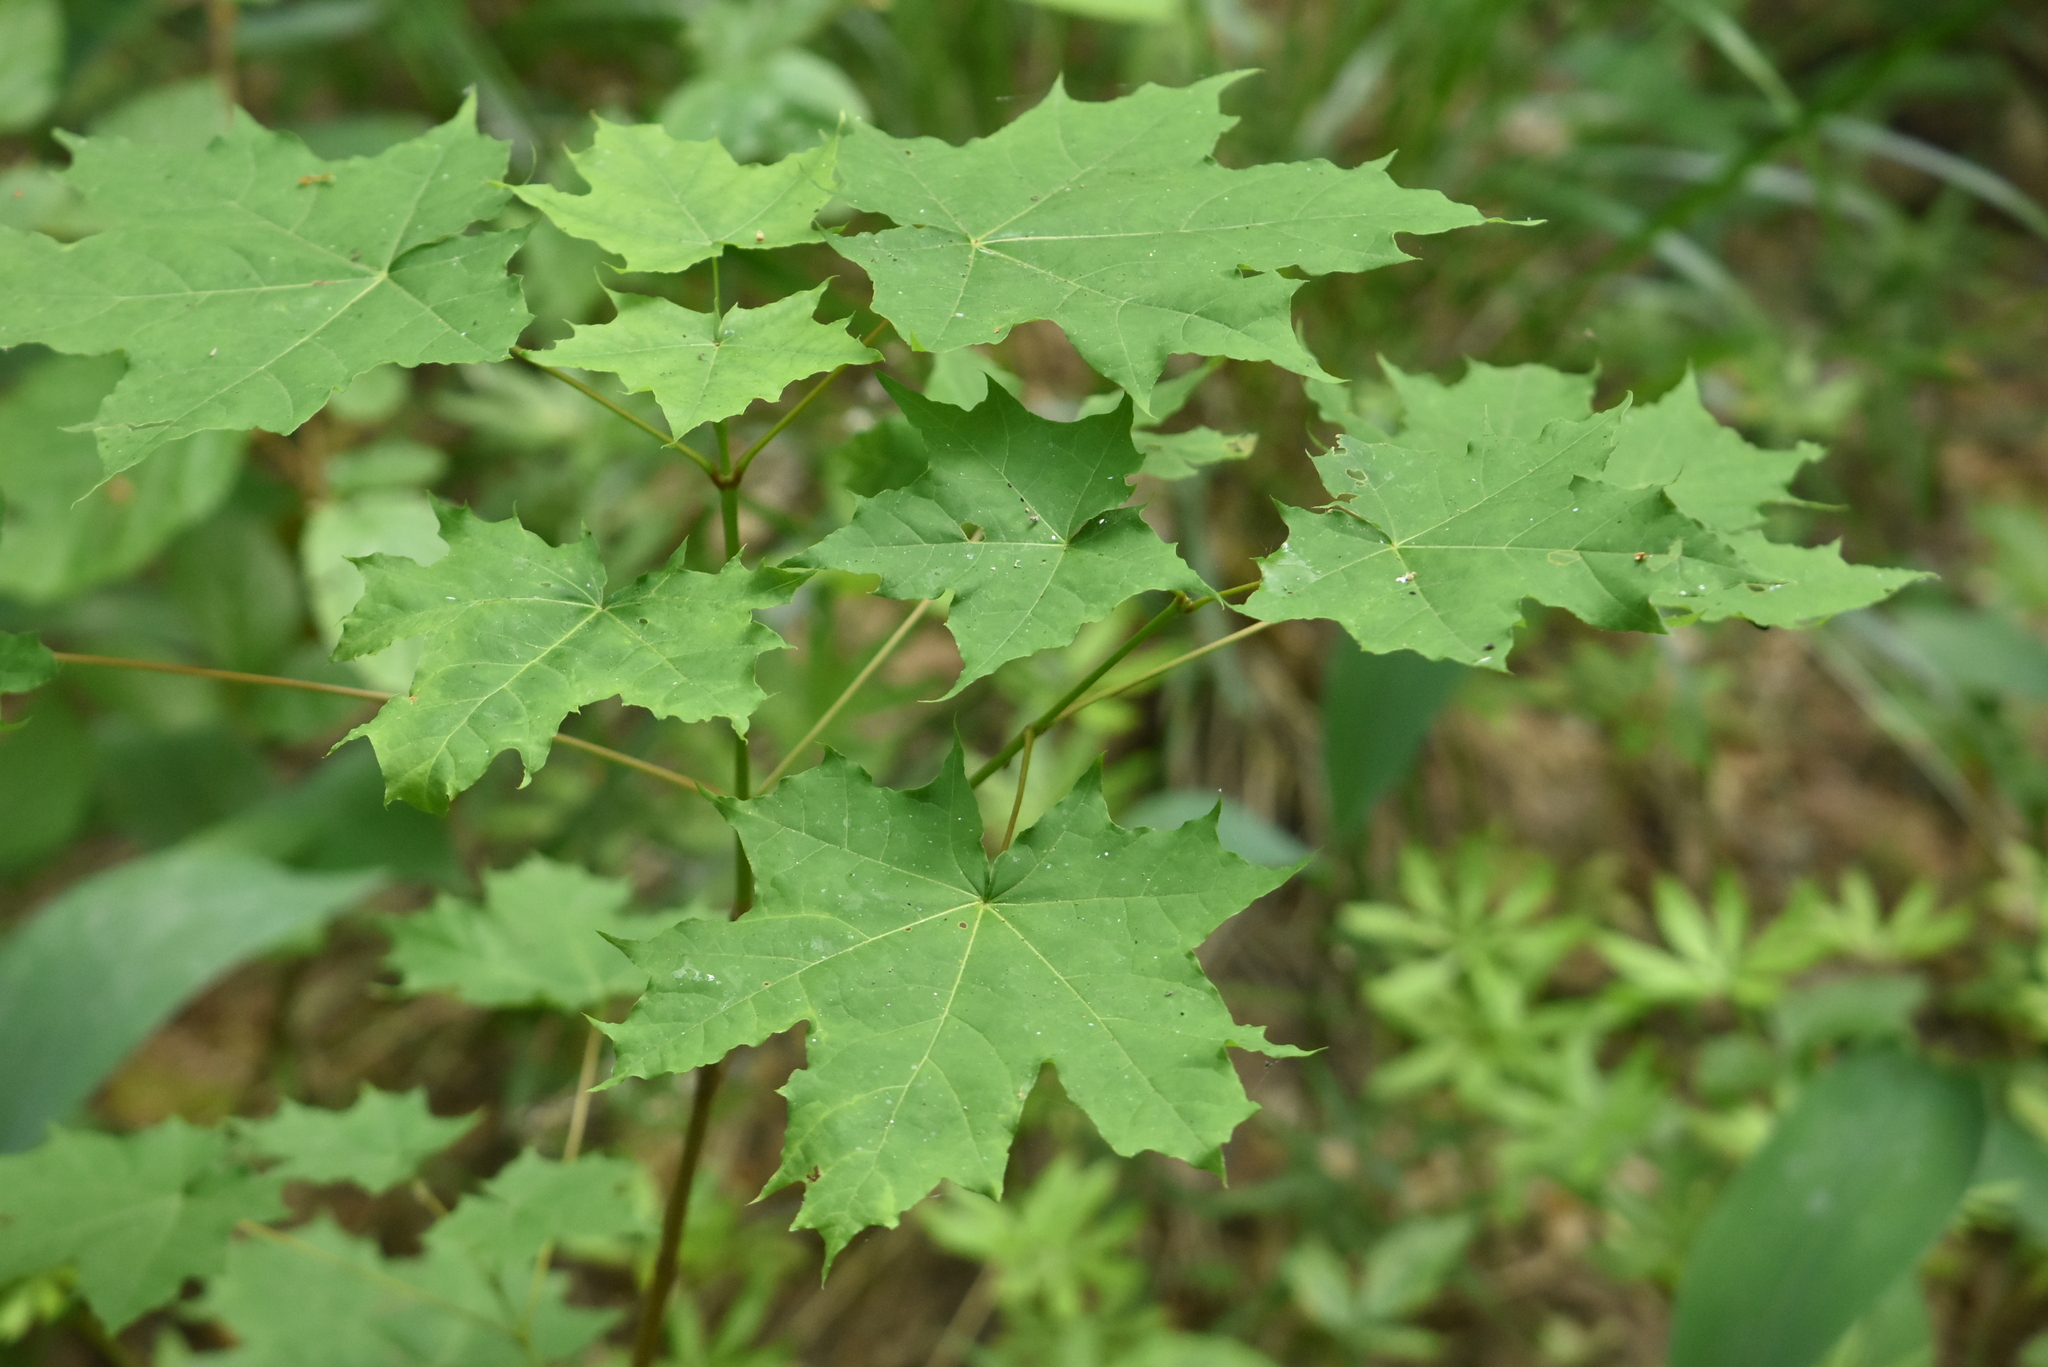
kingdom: Plantae
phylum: Tracheophyta
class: Magnoliopsida
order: Sapindales
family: Sapindaceae
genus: Acer
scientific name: Acer platanoides
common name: Norway maple
